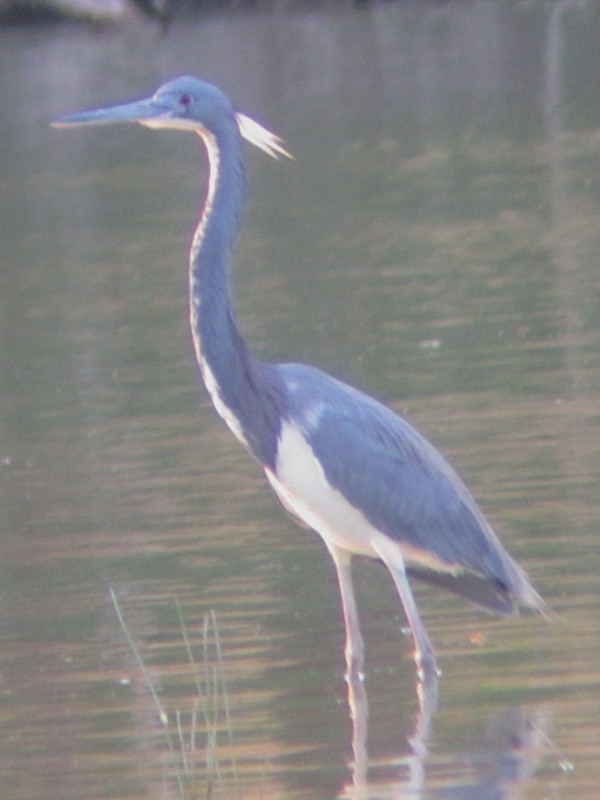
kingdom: Animalia
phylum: Chordata
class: Aves
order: Pelecaniformes
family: Ardeidae
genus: Egretta
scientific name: Egretta tricolor
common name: Tricolored heron
